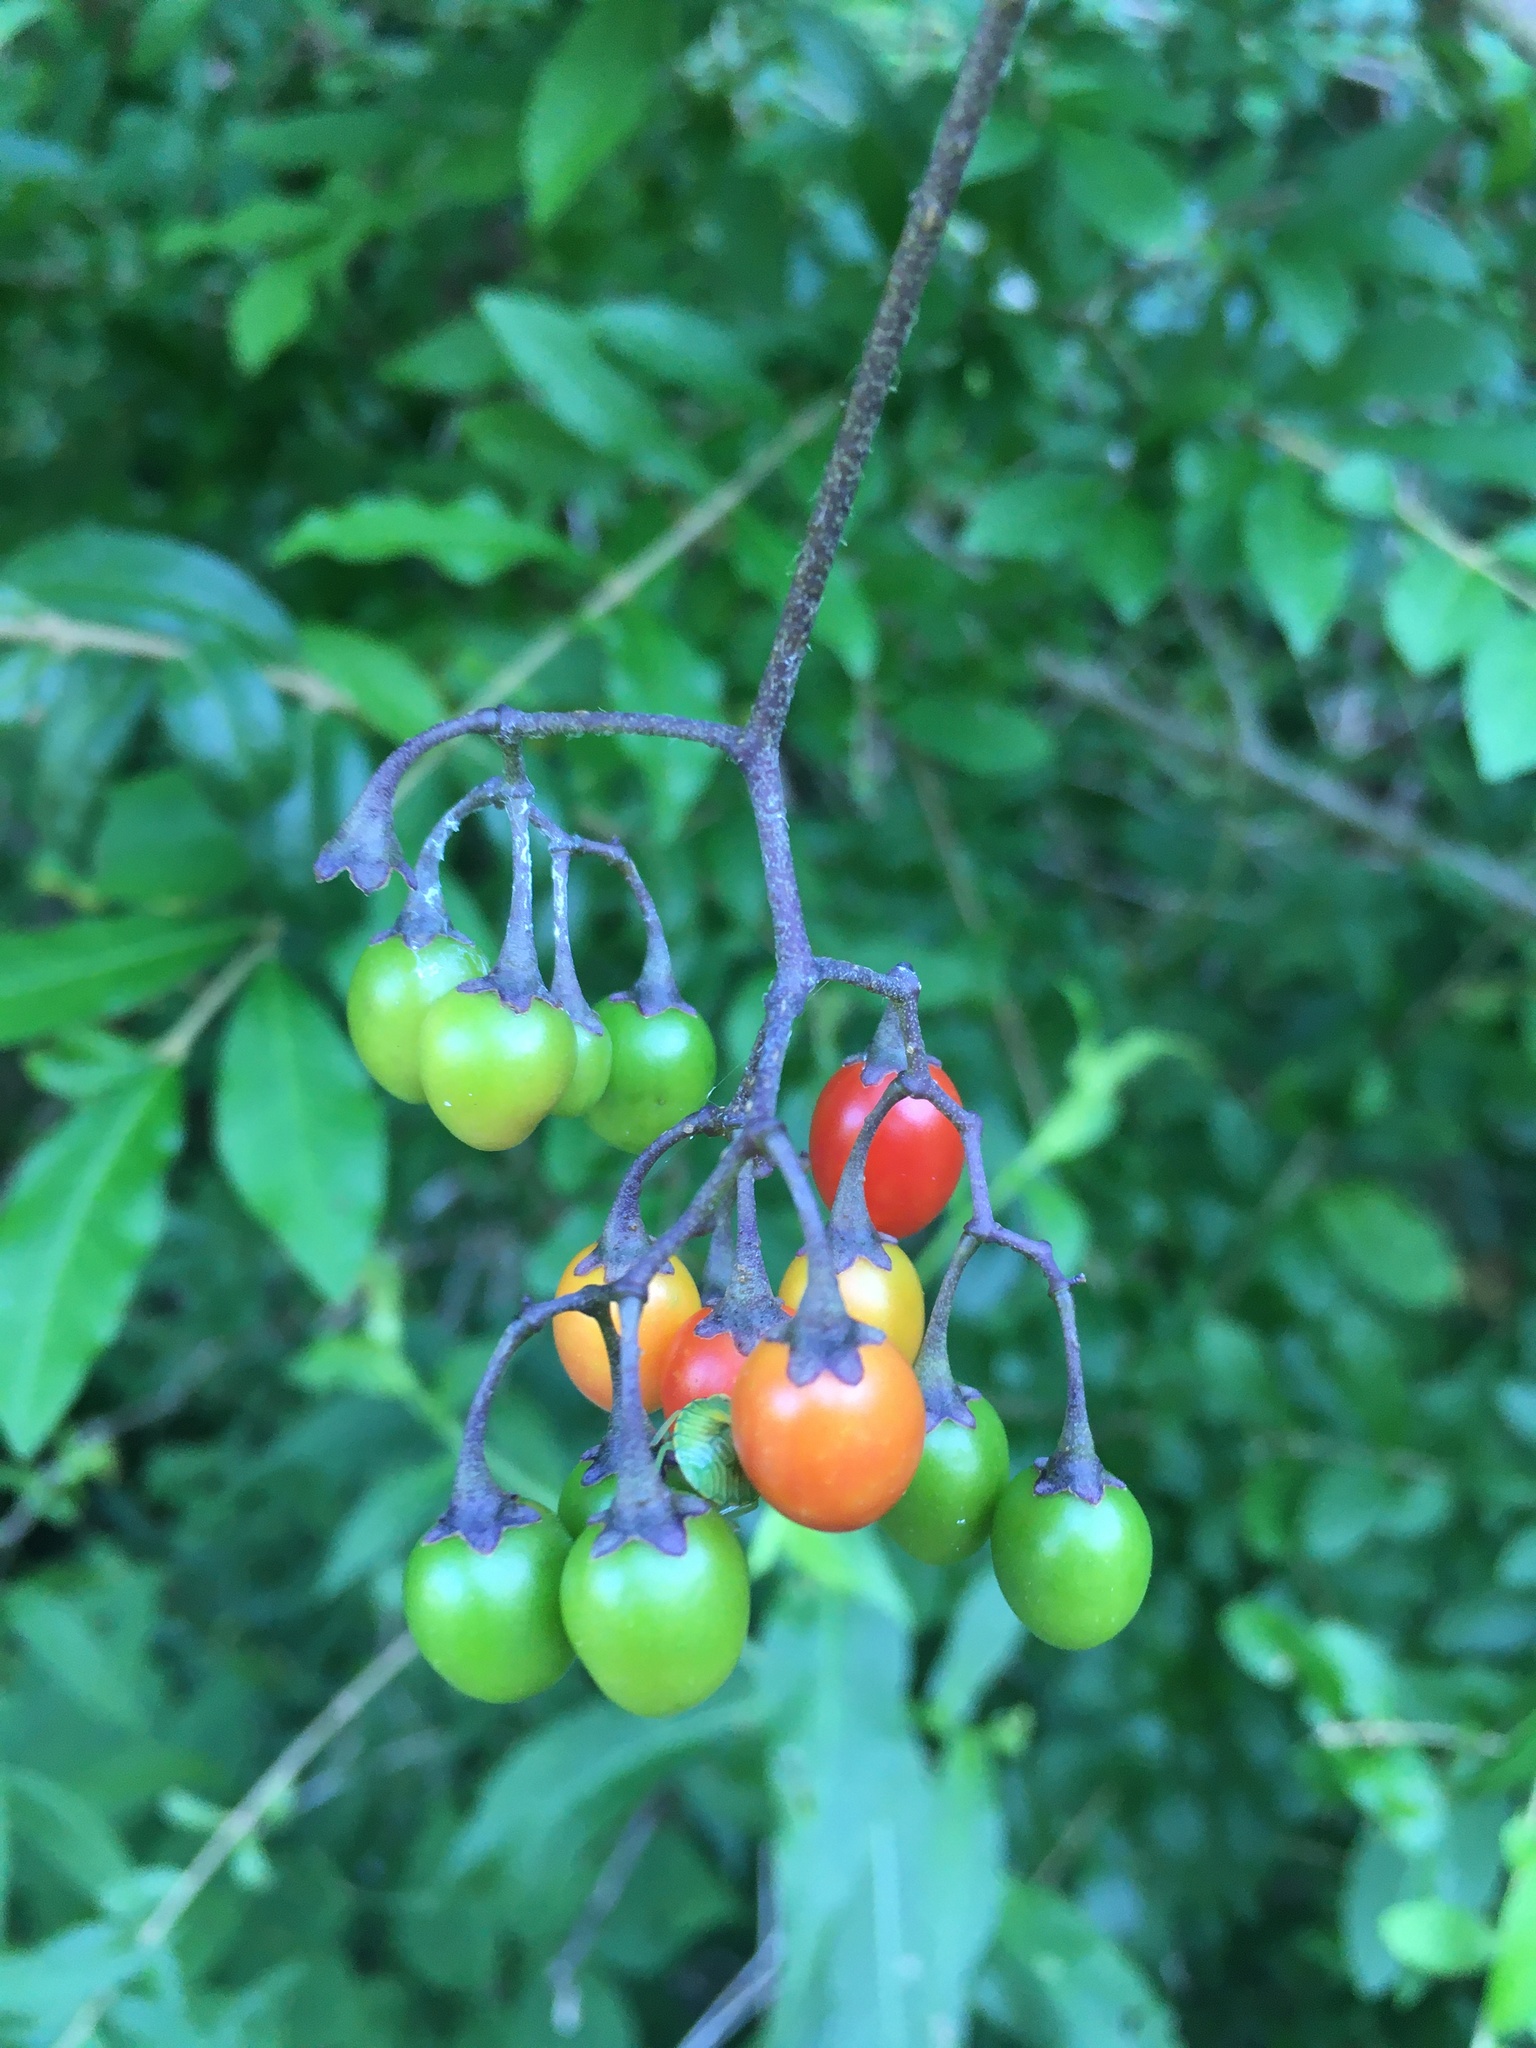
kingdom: Plantae
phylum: Tracheophyta
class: Magnoliopsida
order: Solanales
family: Solanaceae
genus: Solanum
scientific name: Solanum dulcamara
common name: Climbing nightshade
